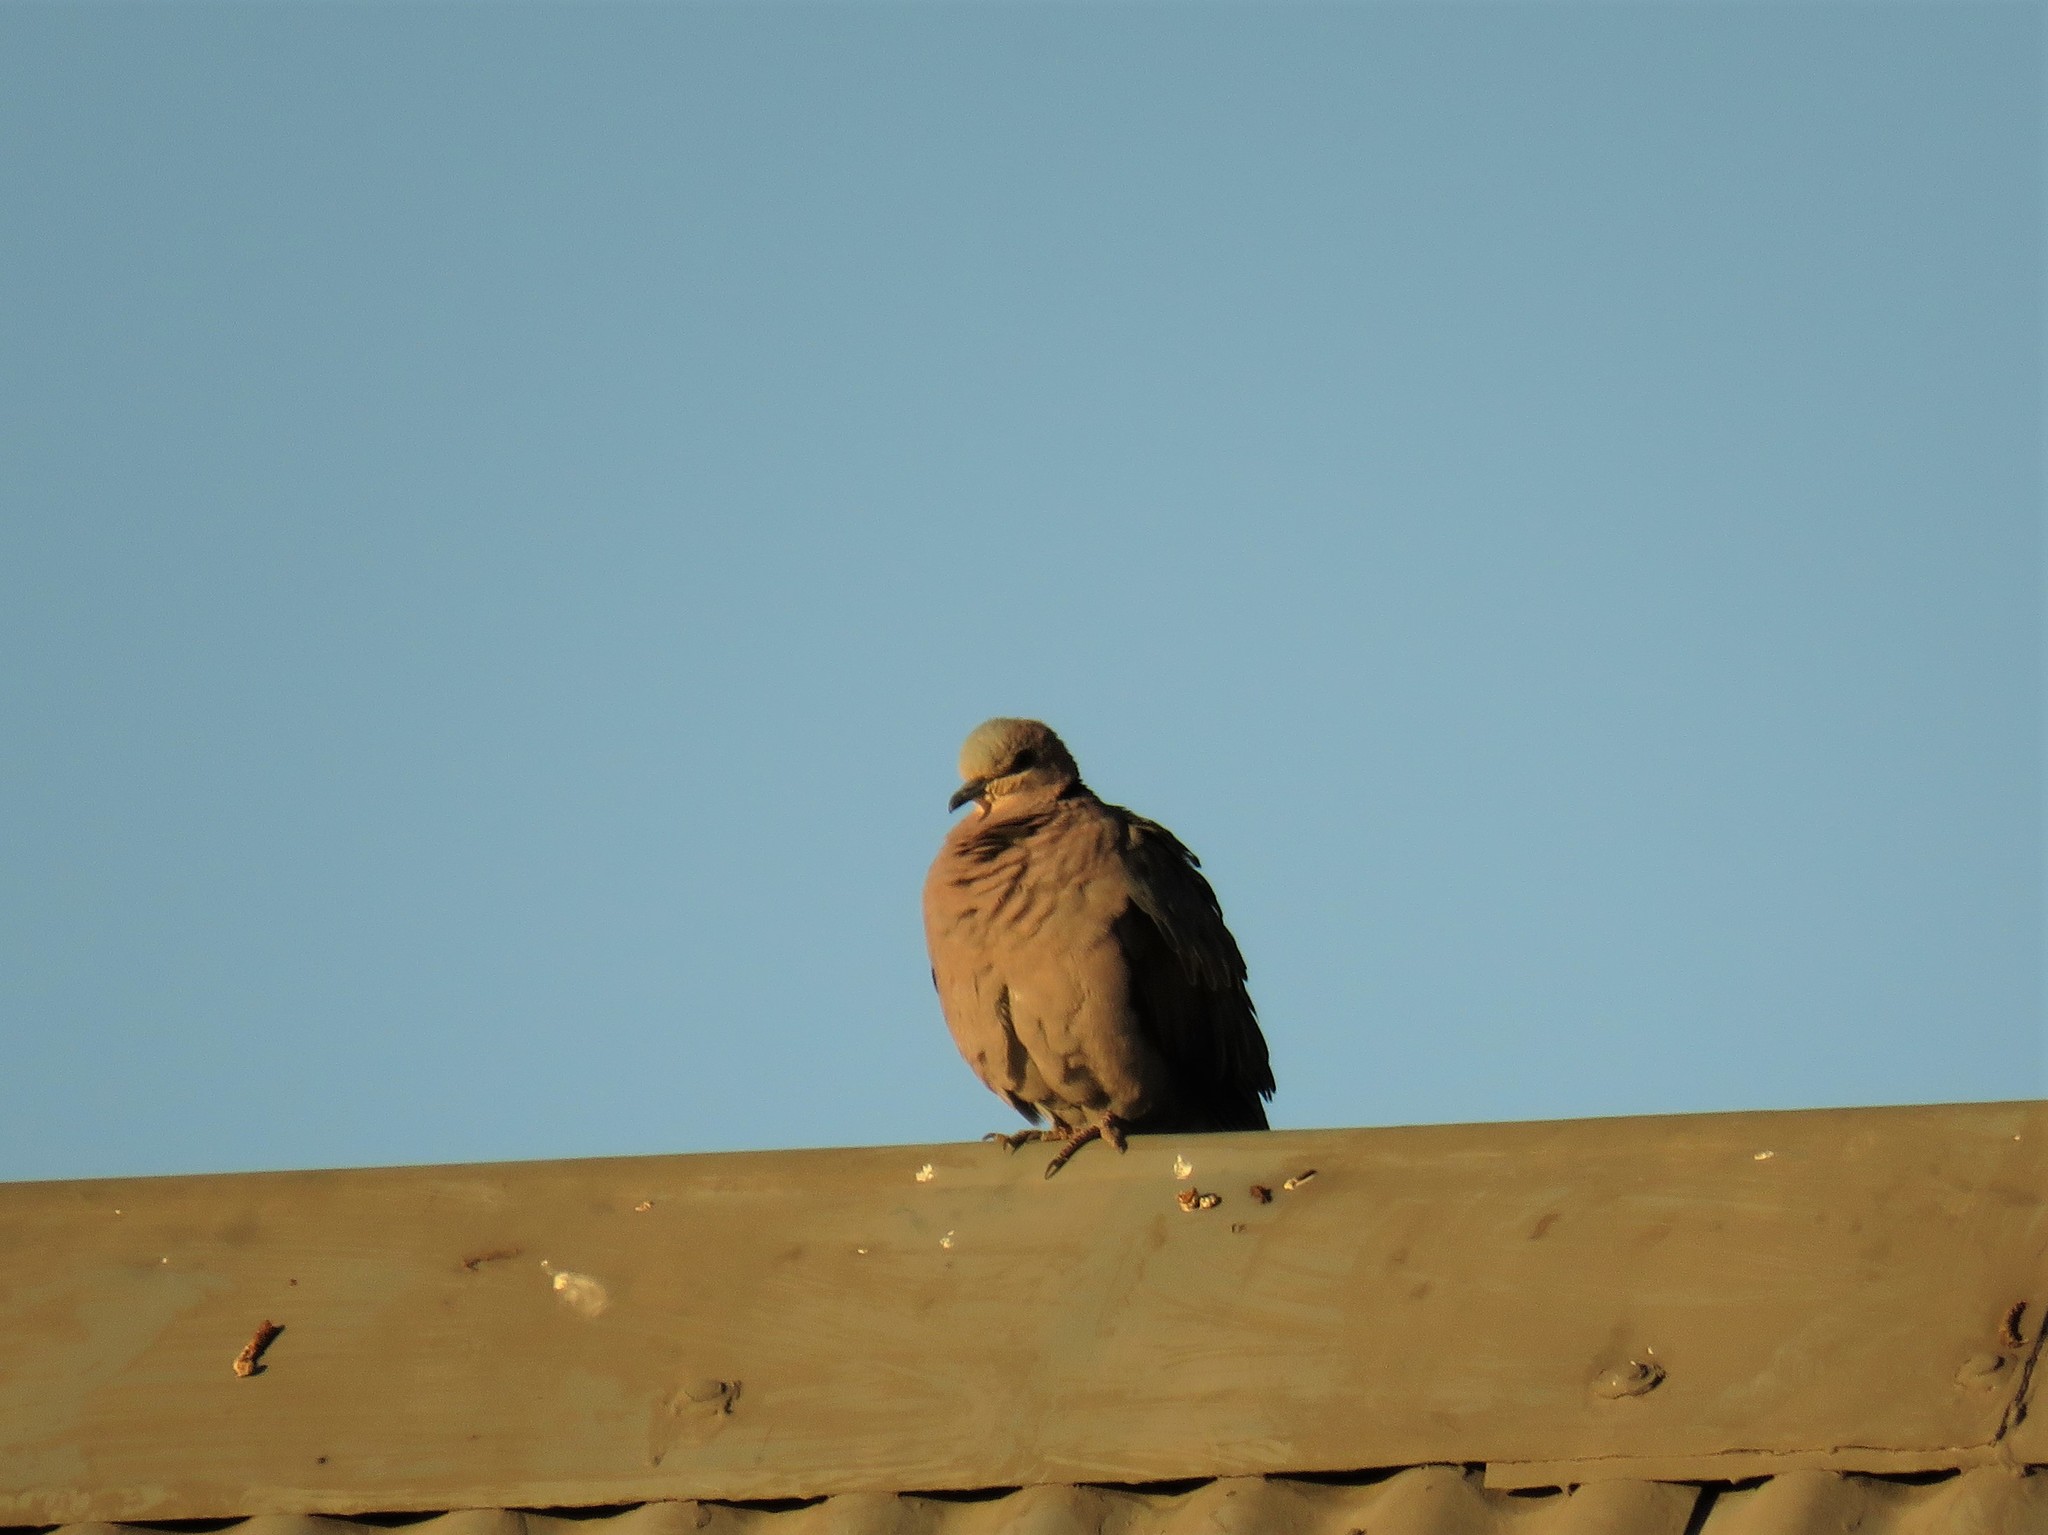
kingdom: Animalia
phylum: Chordata
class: Aves
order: Columbiformes
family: Columbidae
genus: Streptopelia
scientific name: Streptopelia semitorquata
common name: Red-eyed dove
